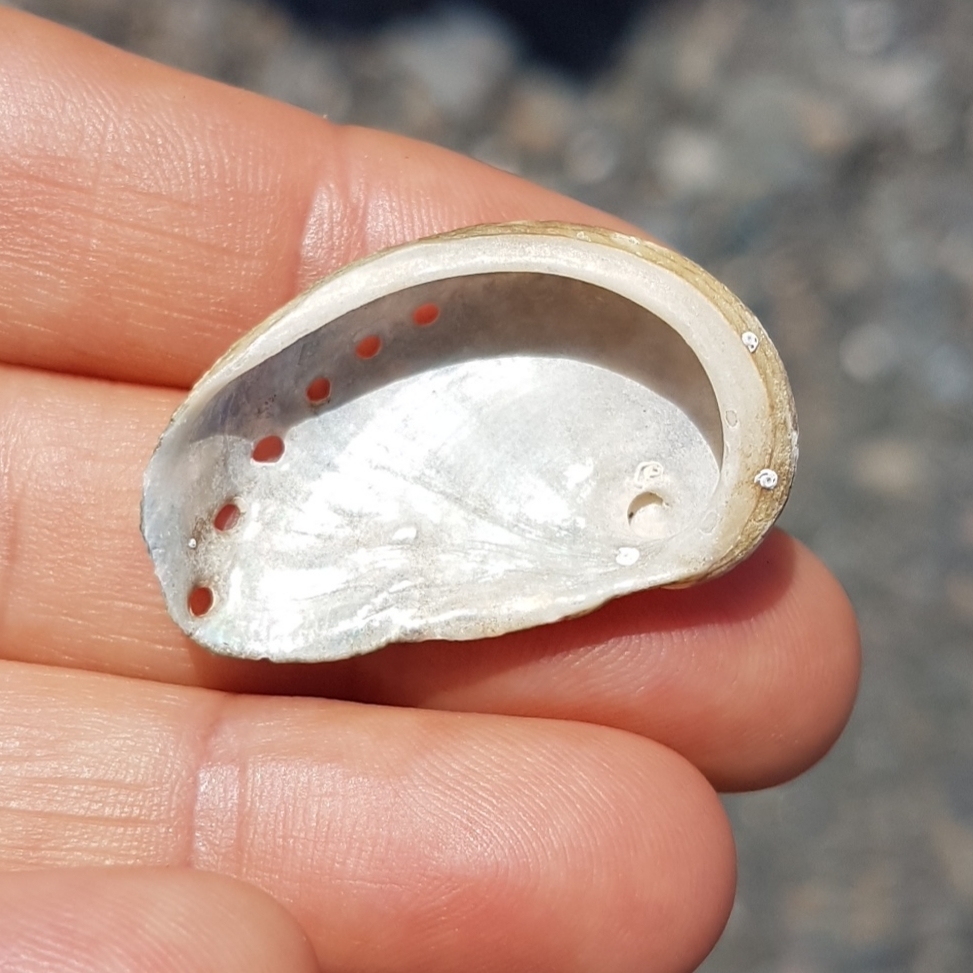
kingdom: Animalia
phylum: Mollusca
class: Gastropoda
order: Lepetellida
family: Haliotidae
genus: Haliotis
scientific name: Haliotis tuberculata
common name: Green ormer
